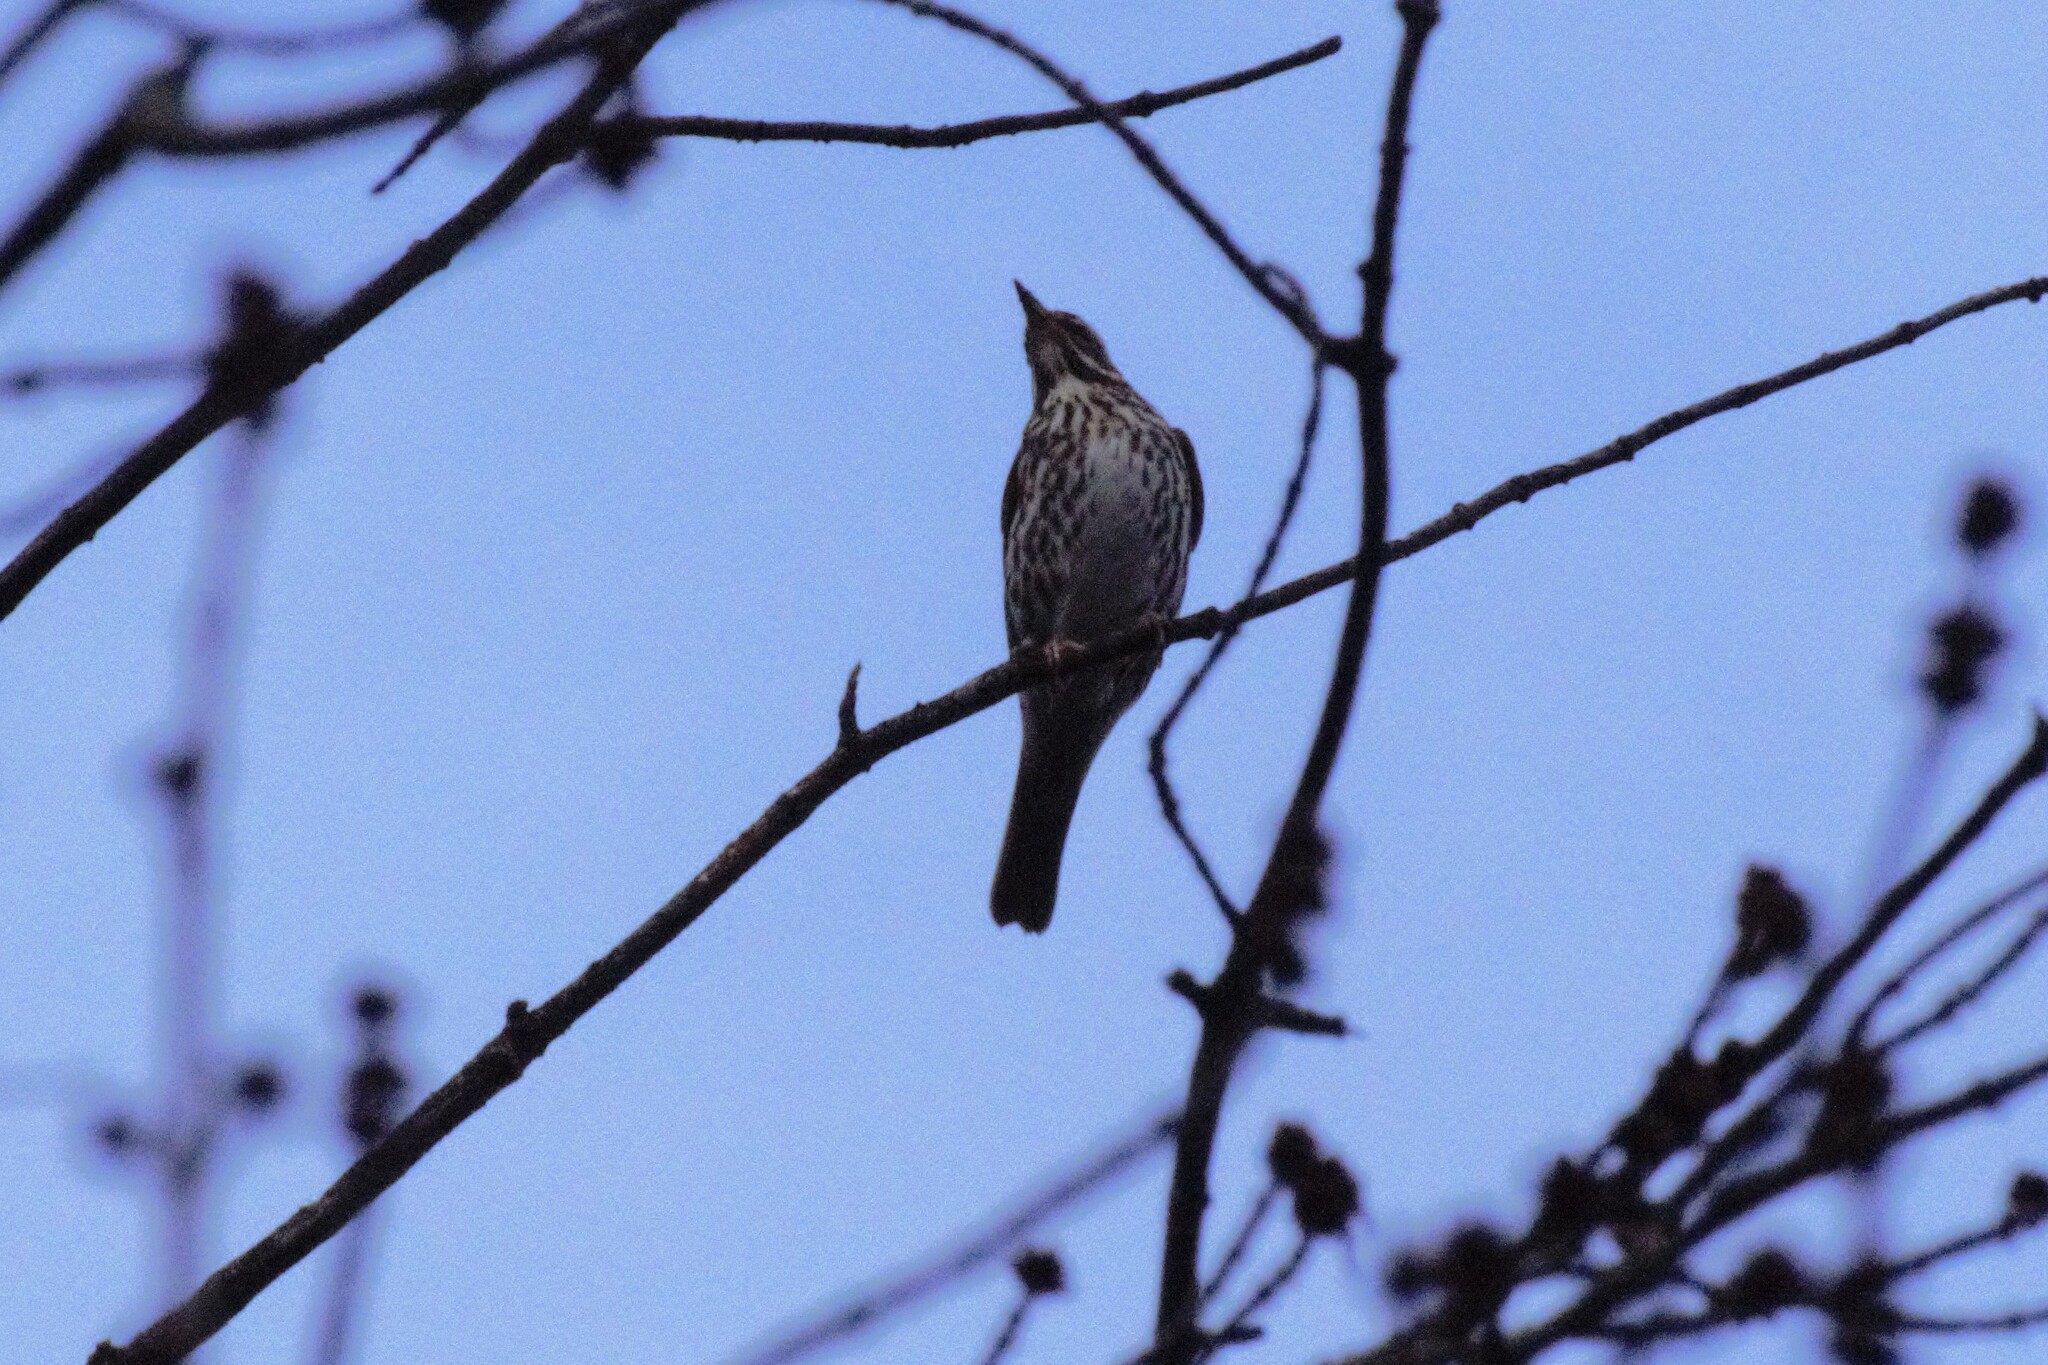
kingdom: Animalia
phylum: Chordata
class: Aves
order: Passeriformes
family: Turdidae
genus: Turdus
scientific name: Turdus iliacus
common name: Redwing
